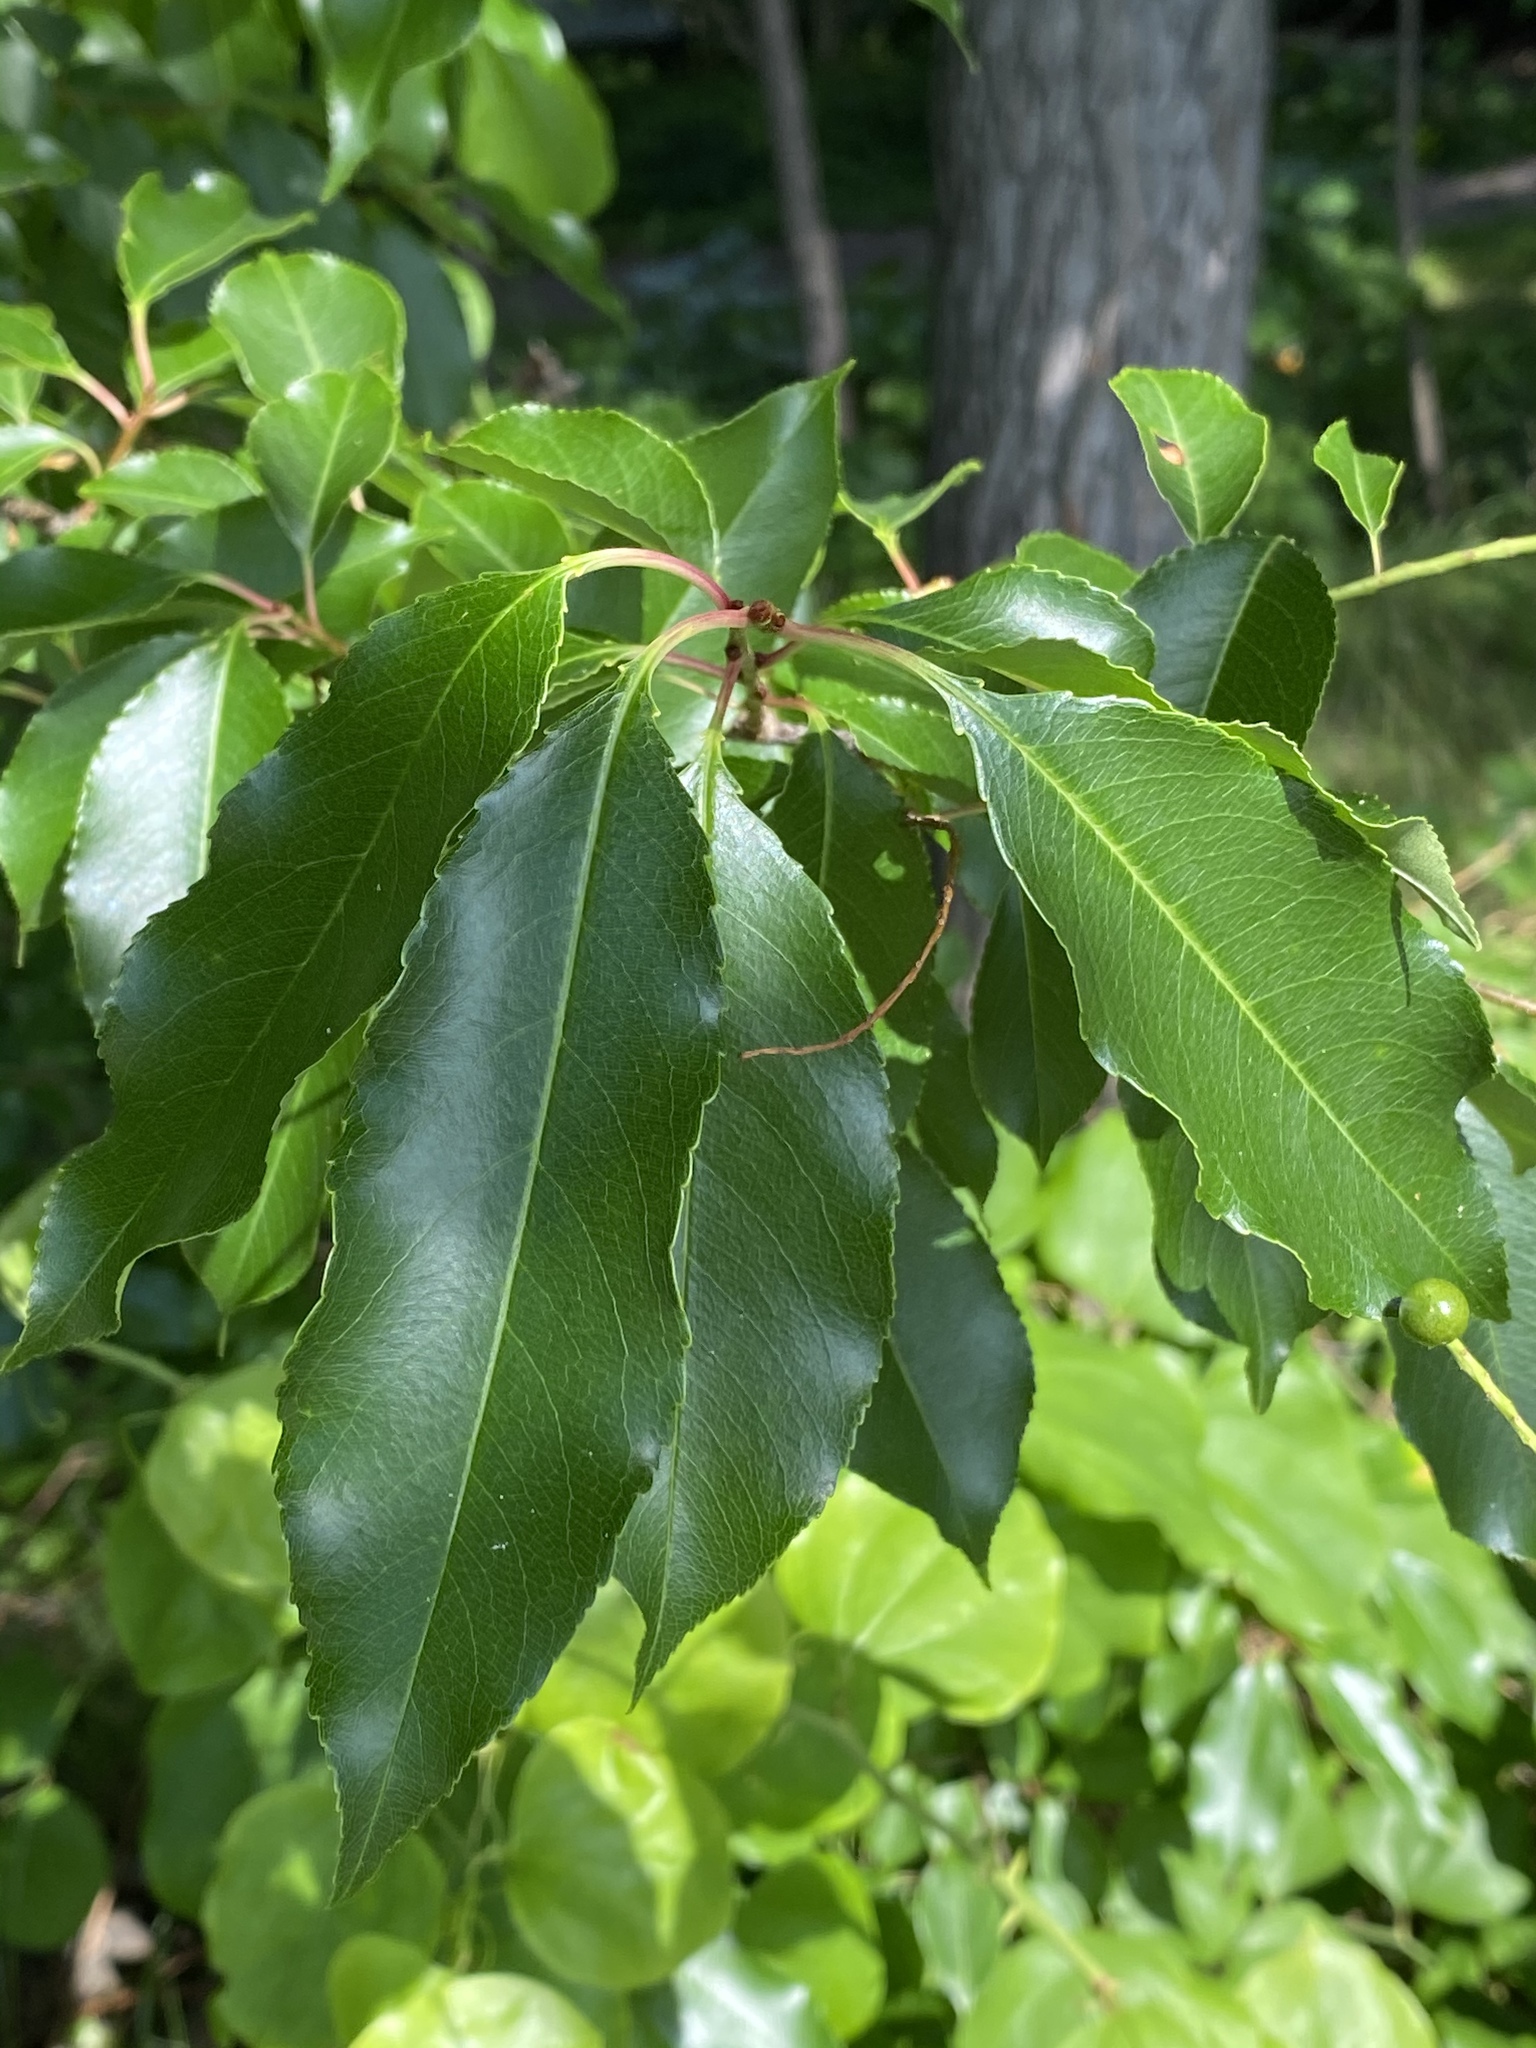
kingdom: Plantae
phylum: Tracheophyta
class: Magnoliopsida
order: Rosales
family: Rosaceae
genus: Prunus
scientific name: Prunus serotina
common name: Black cherry
